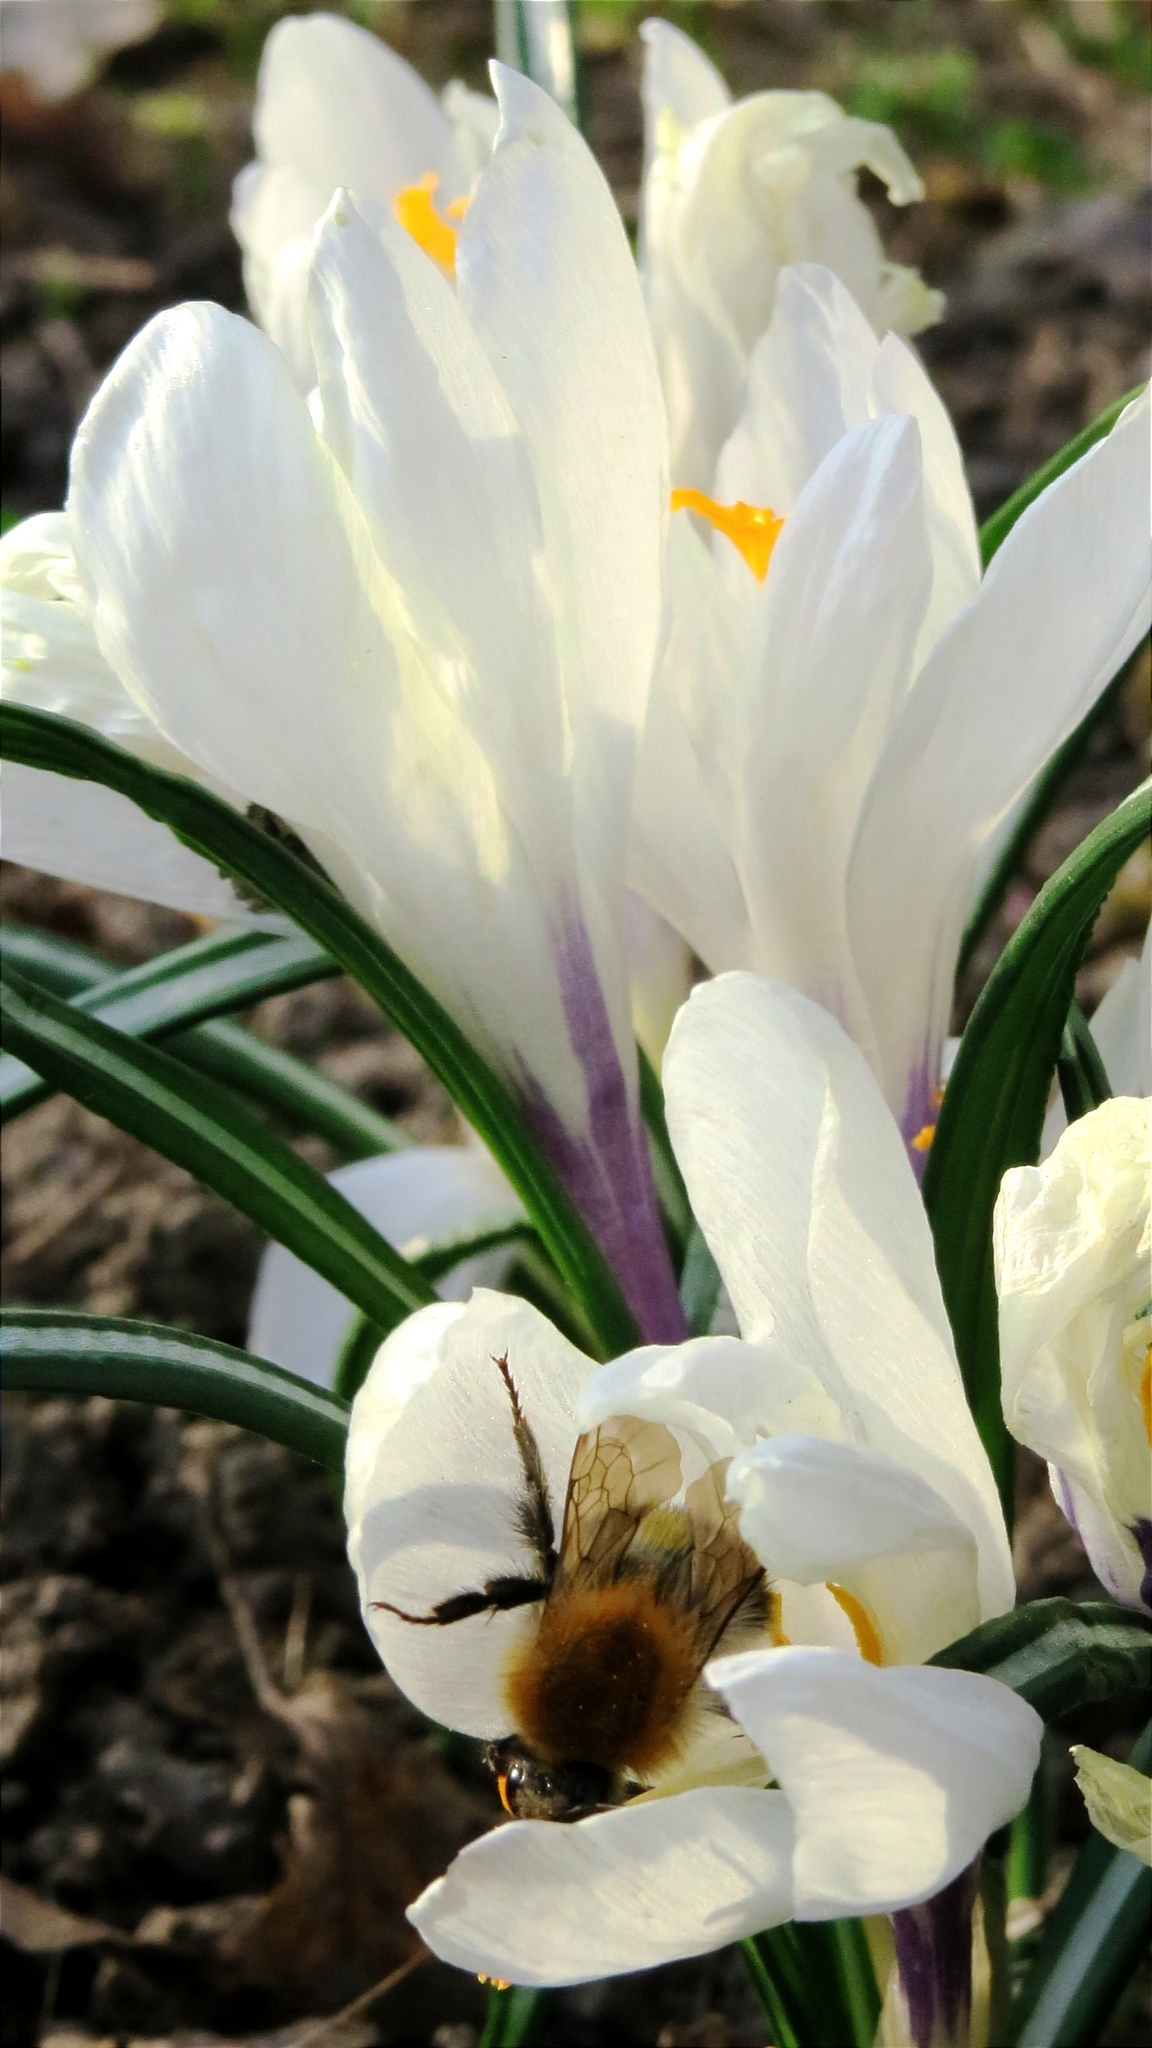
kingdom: Animalia
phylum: Arthropoda
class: Insecta
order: Hymenoptera
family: Apidae
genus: Bombus
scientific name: Bombus pascuorum
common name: Common carder bee
